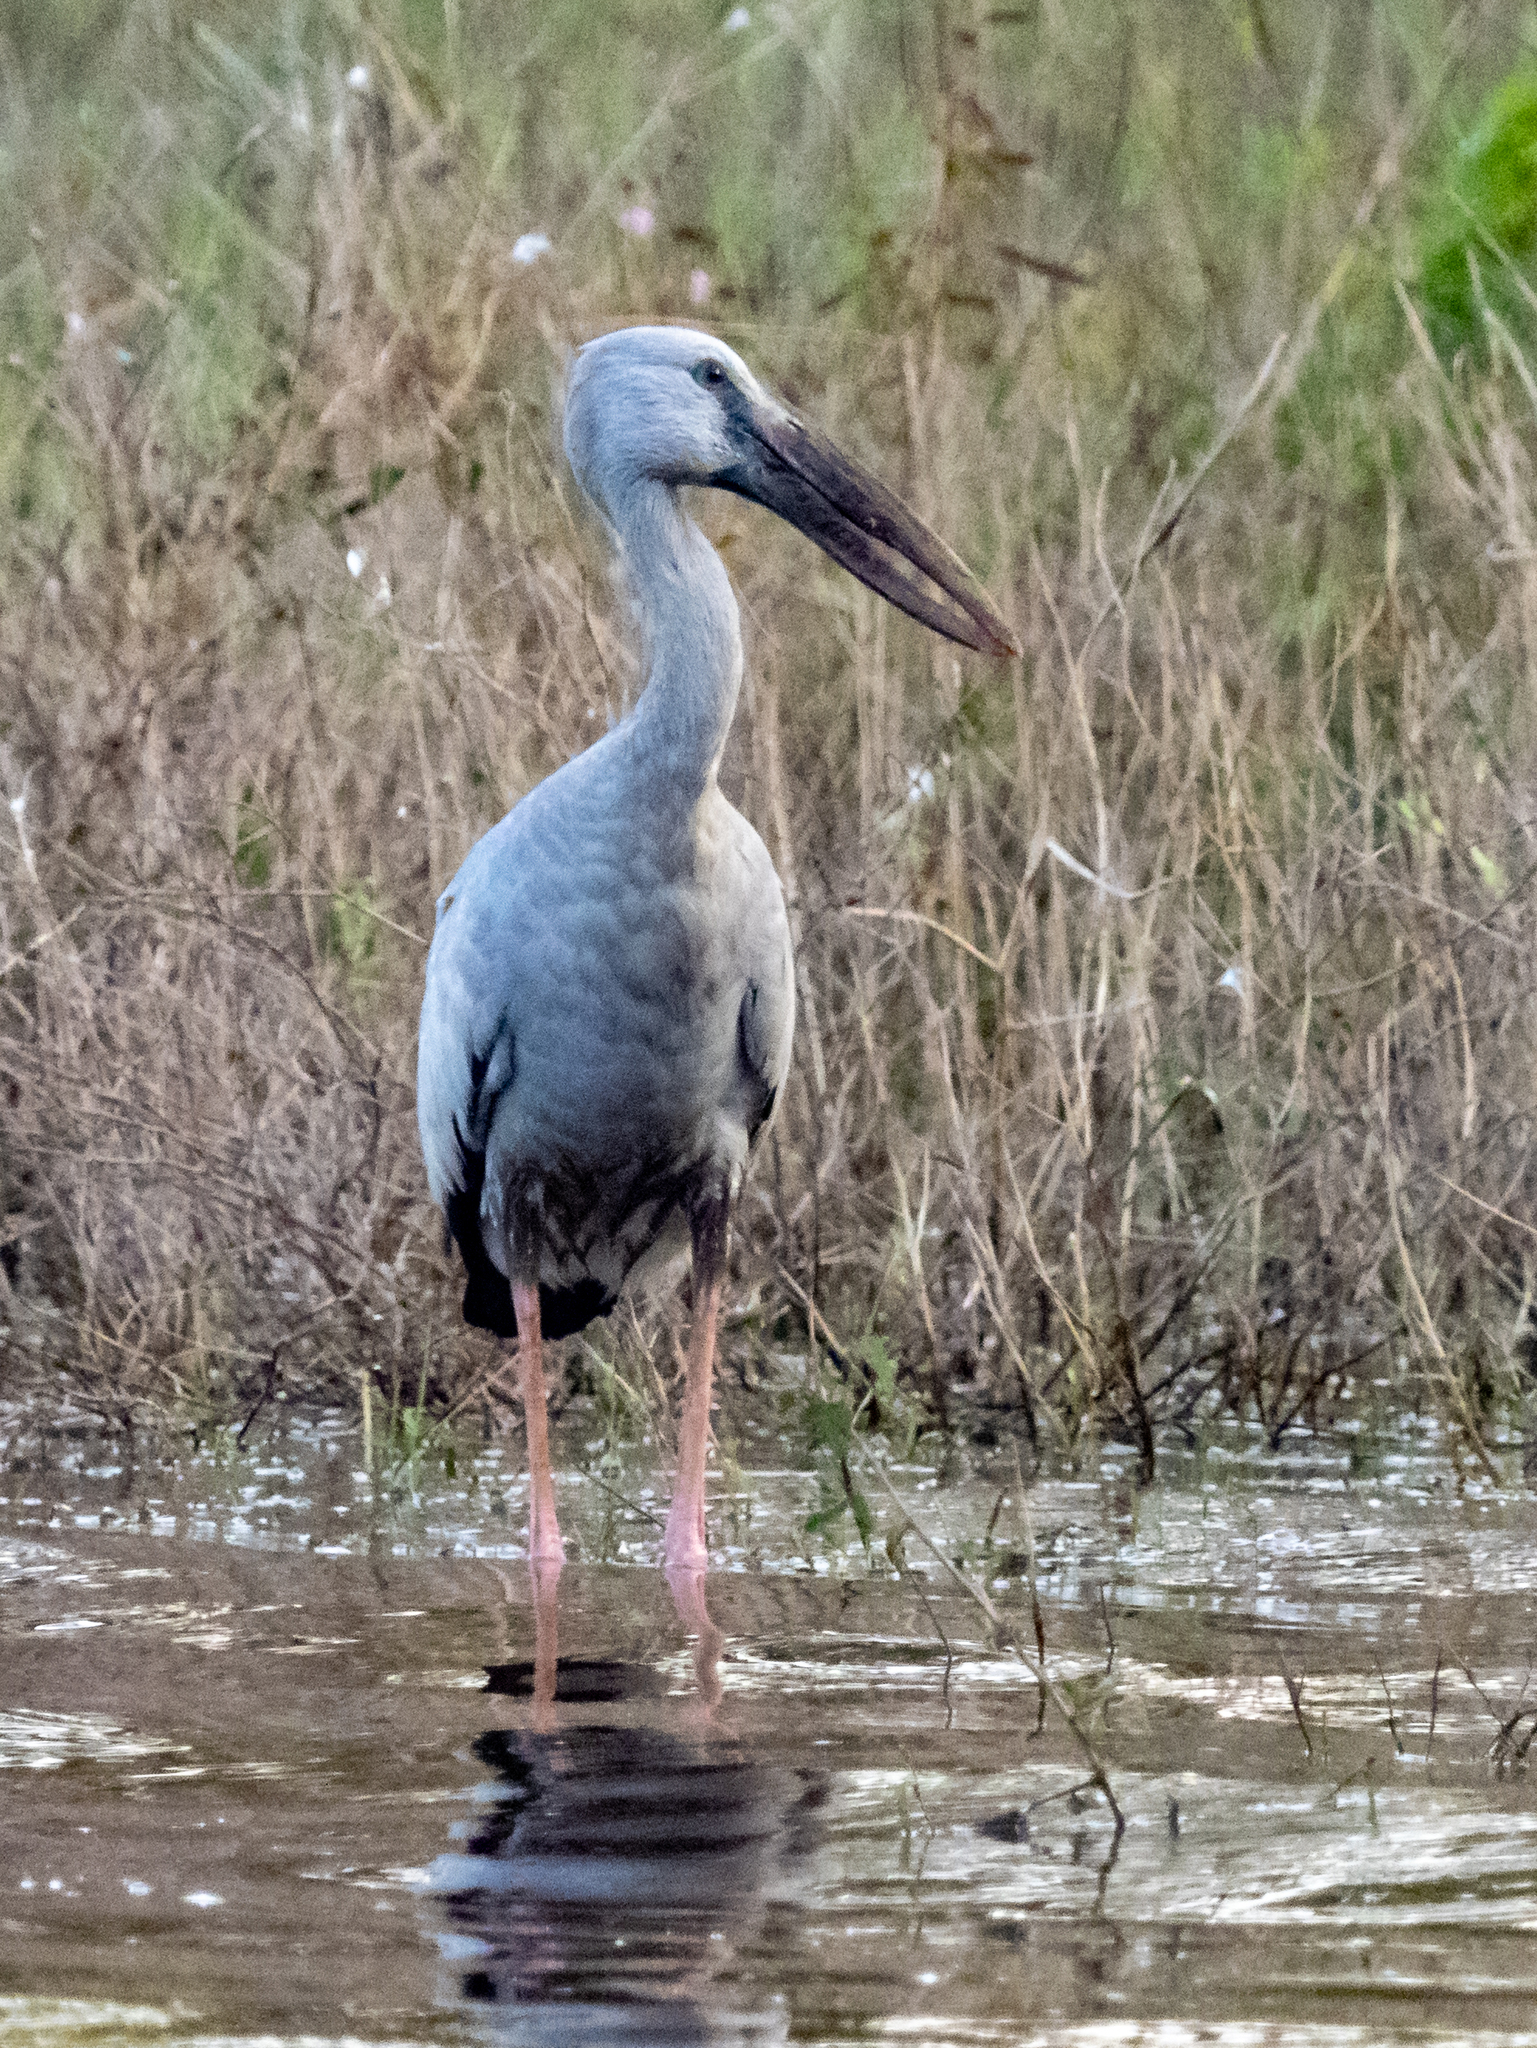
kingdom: Animalia
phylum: Chordata
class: Aves
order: Ciconiiformes
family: Ciconiidae
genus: Anastomus
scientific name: Anastomus oscitans
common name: Asian openbill
